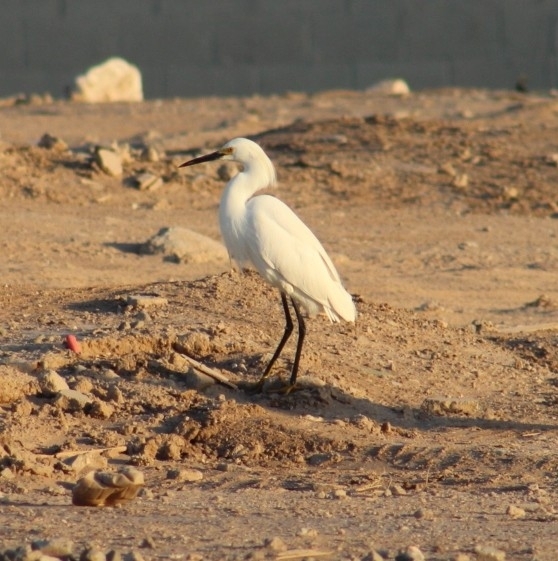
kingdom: Animalia
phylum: Chordata
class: Aves
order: Pelecaniformes
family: Ardeidae
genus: Egretta
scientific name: Egretta thula
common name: Snowy egret
